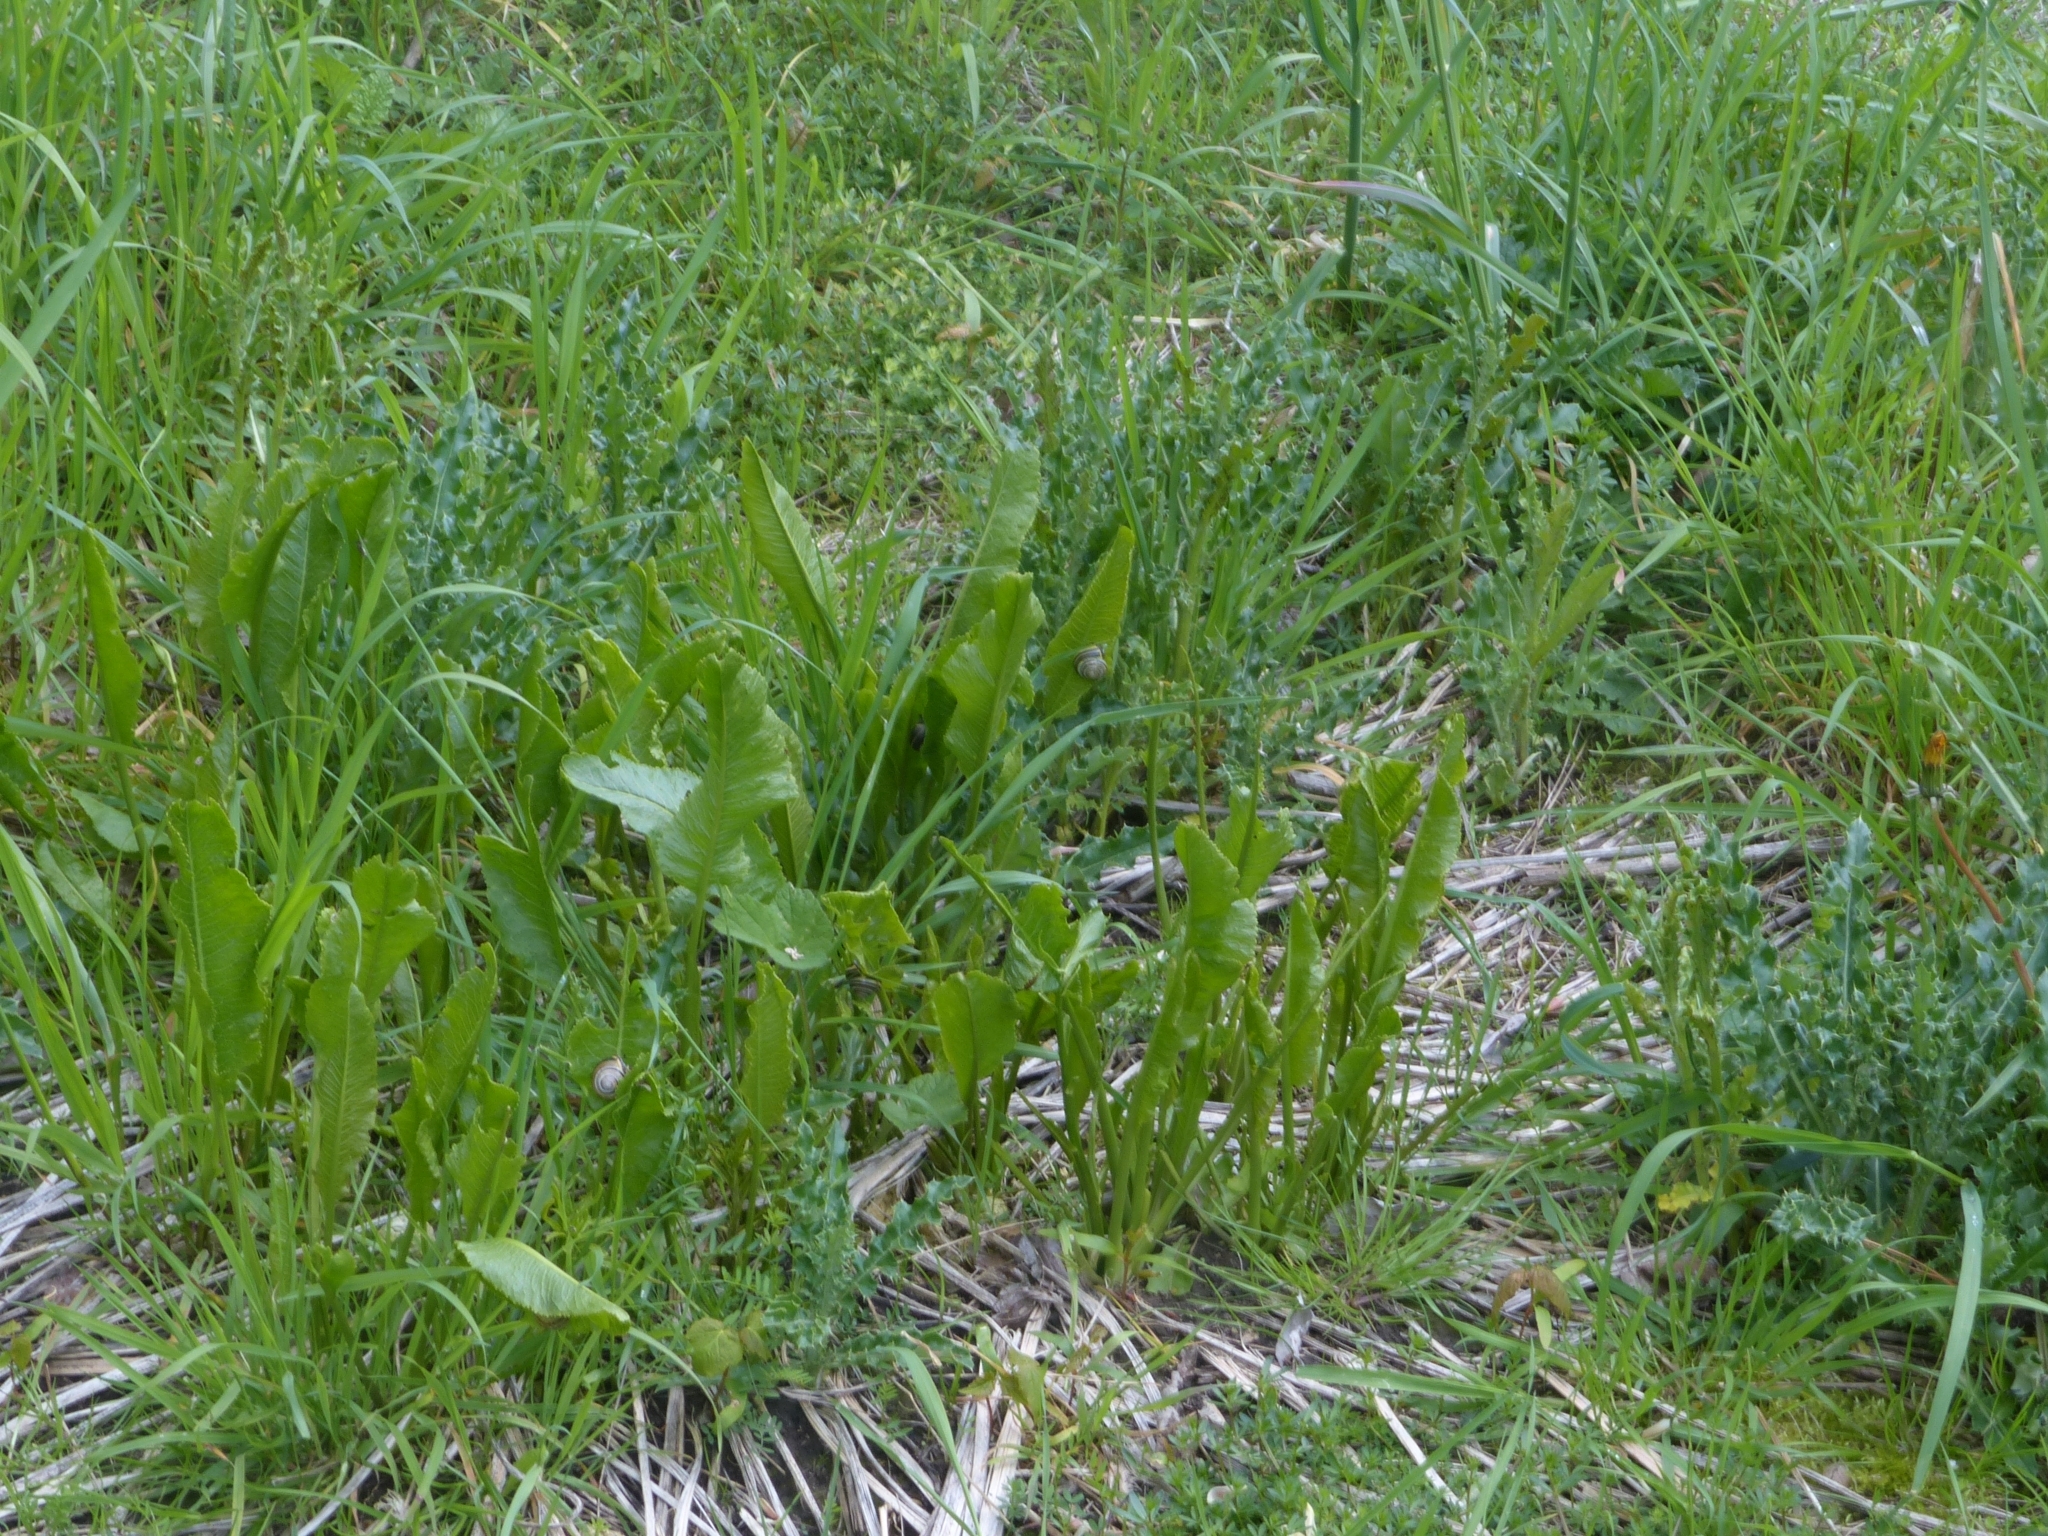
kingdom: Plantae
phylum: Tracheophyta
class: Magnoliopsida
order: Brassicales
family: Brassicaceae
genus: Armoracia
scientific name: Armoracia rusticana
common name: Horseradish
